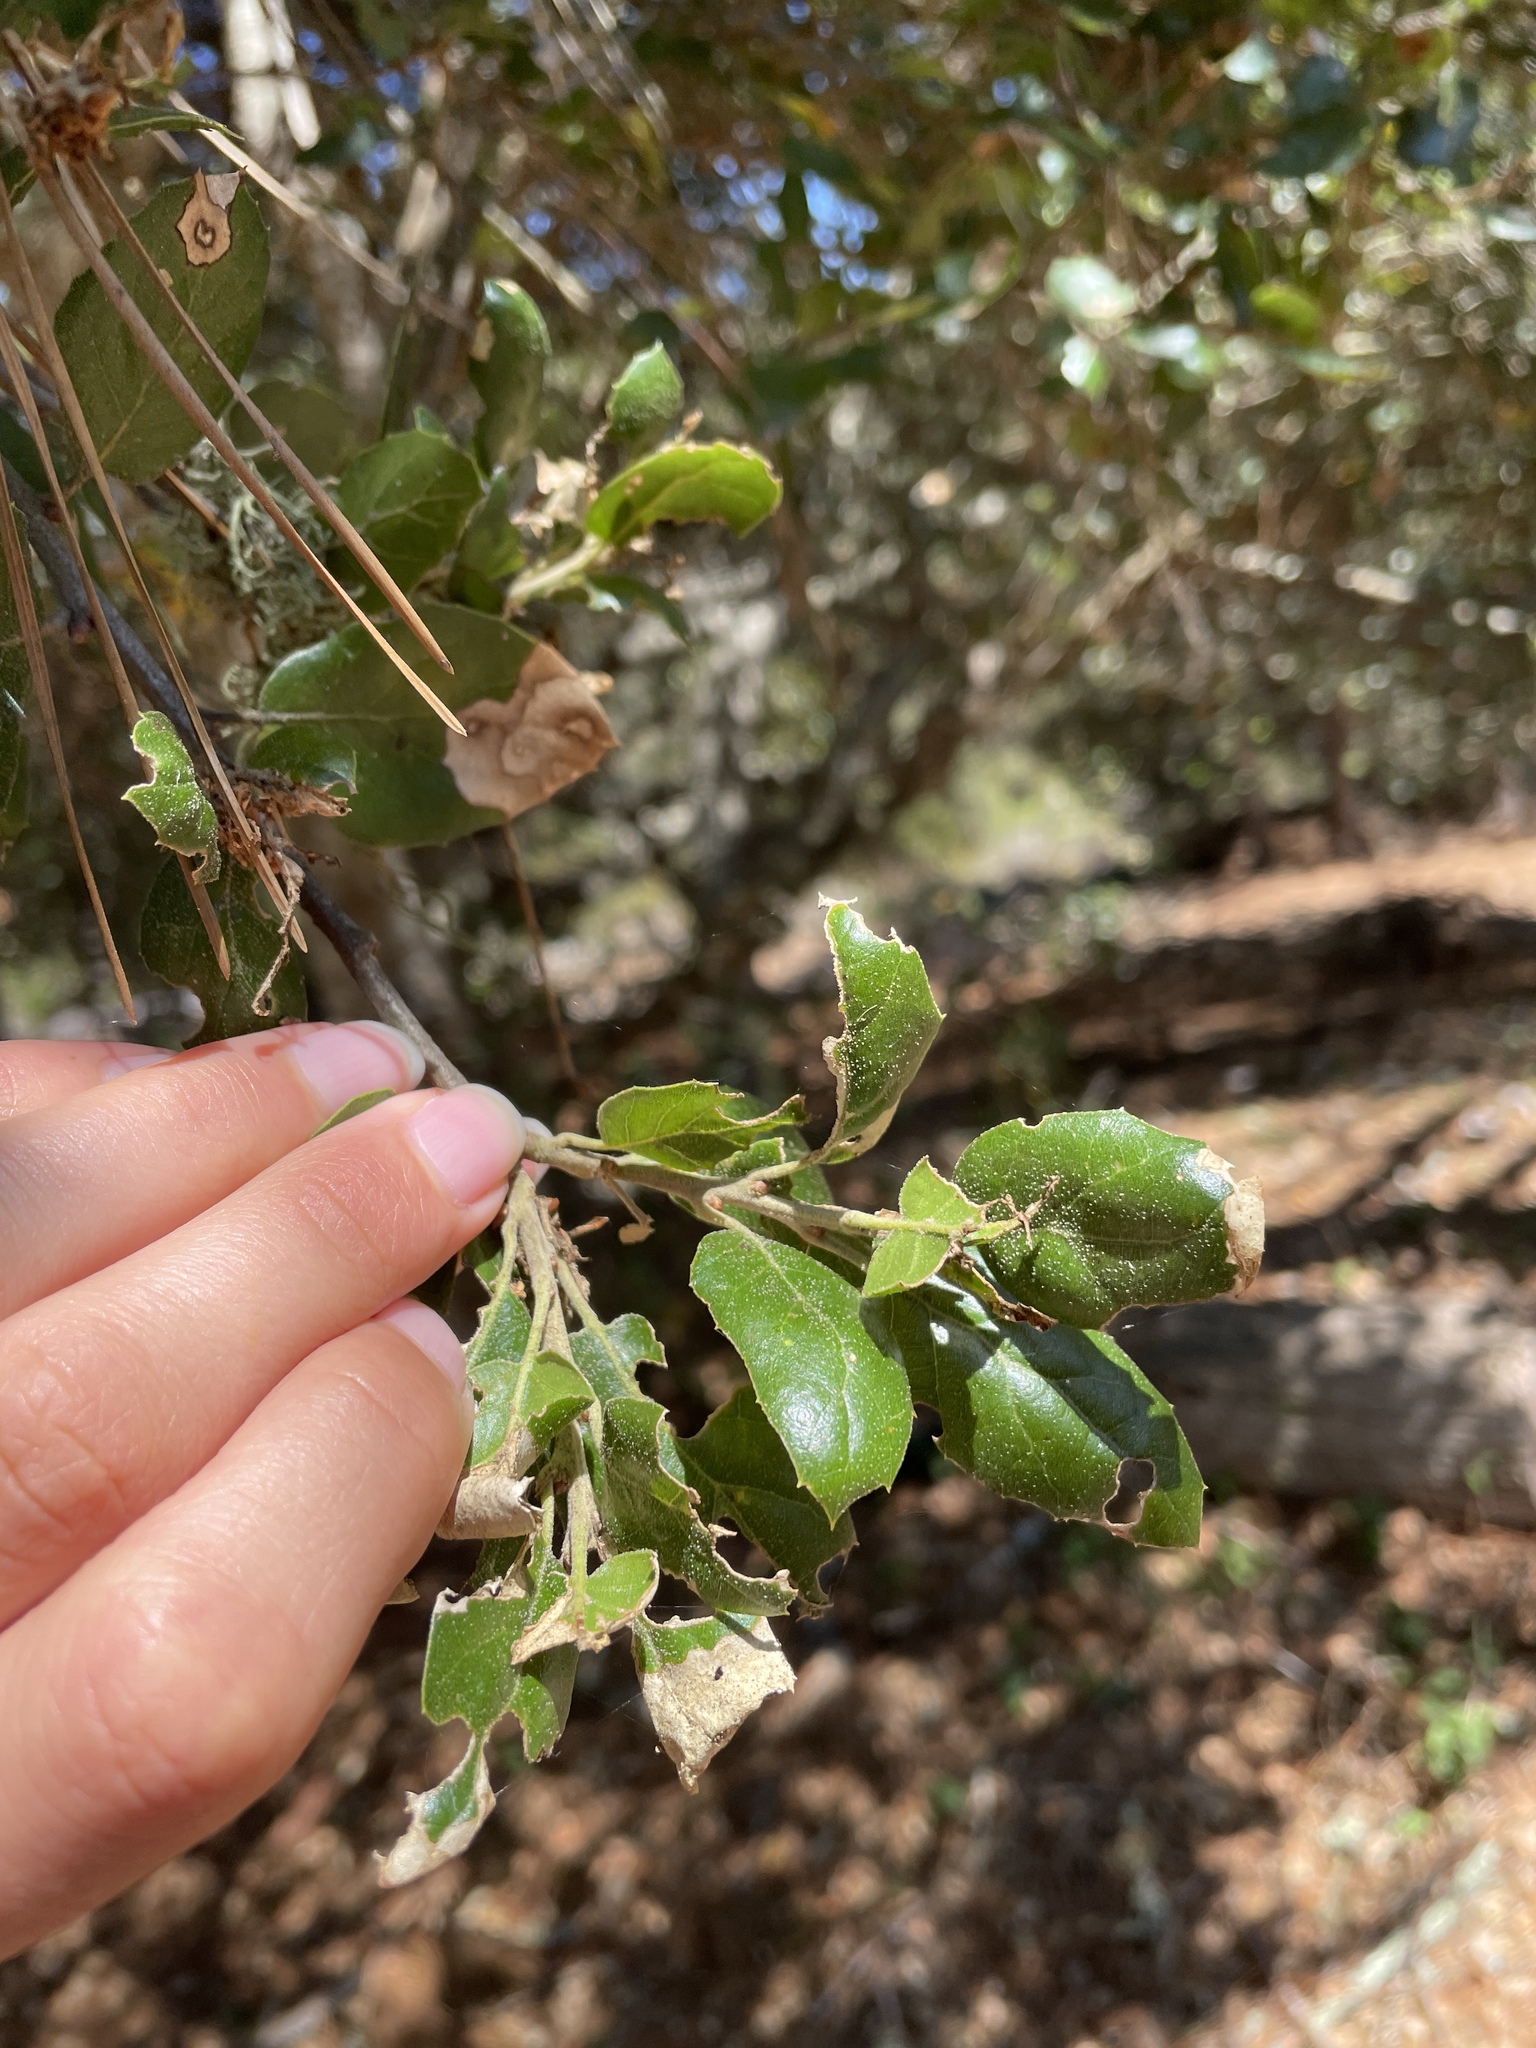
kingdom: Plantae
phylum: Tracheophyta
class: Magnoliopsida
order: Fagales
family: Fagaceae
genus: Quercus
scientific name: Quercus agrifolia
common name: California live oak
